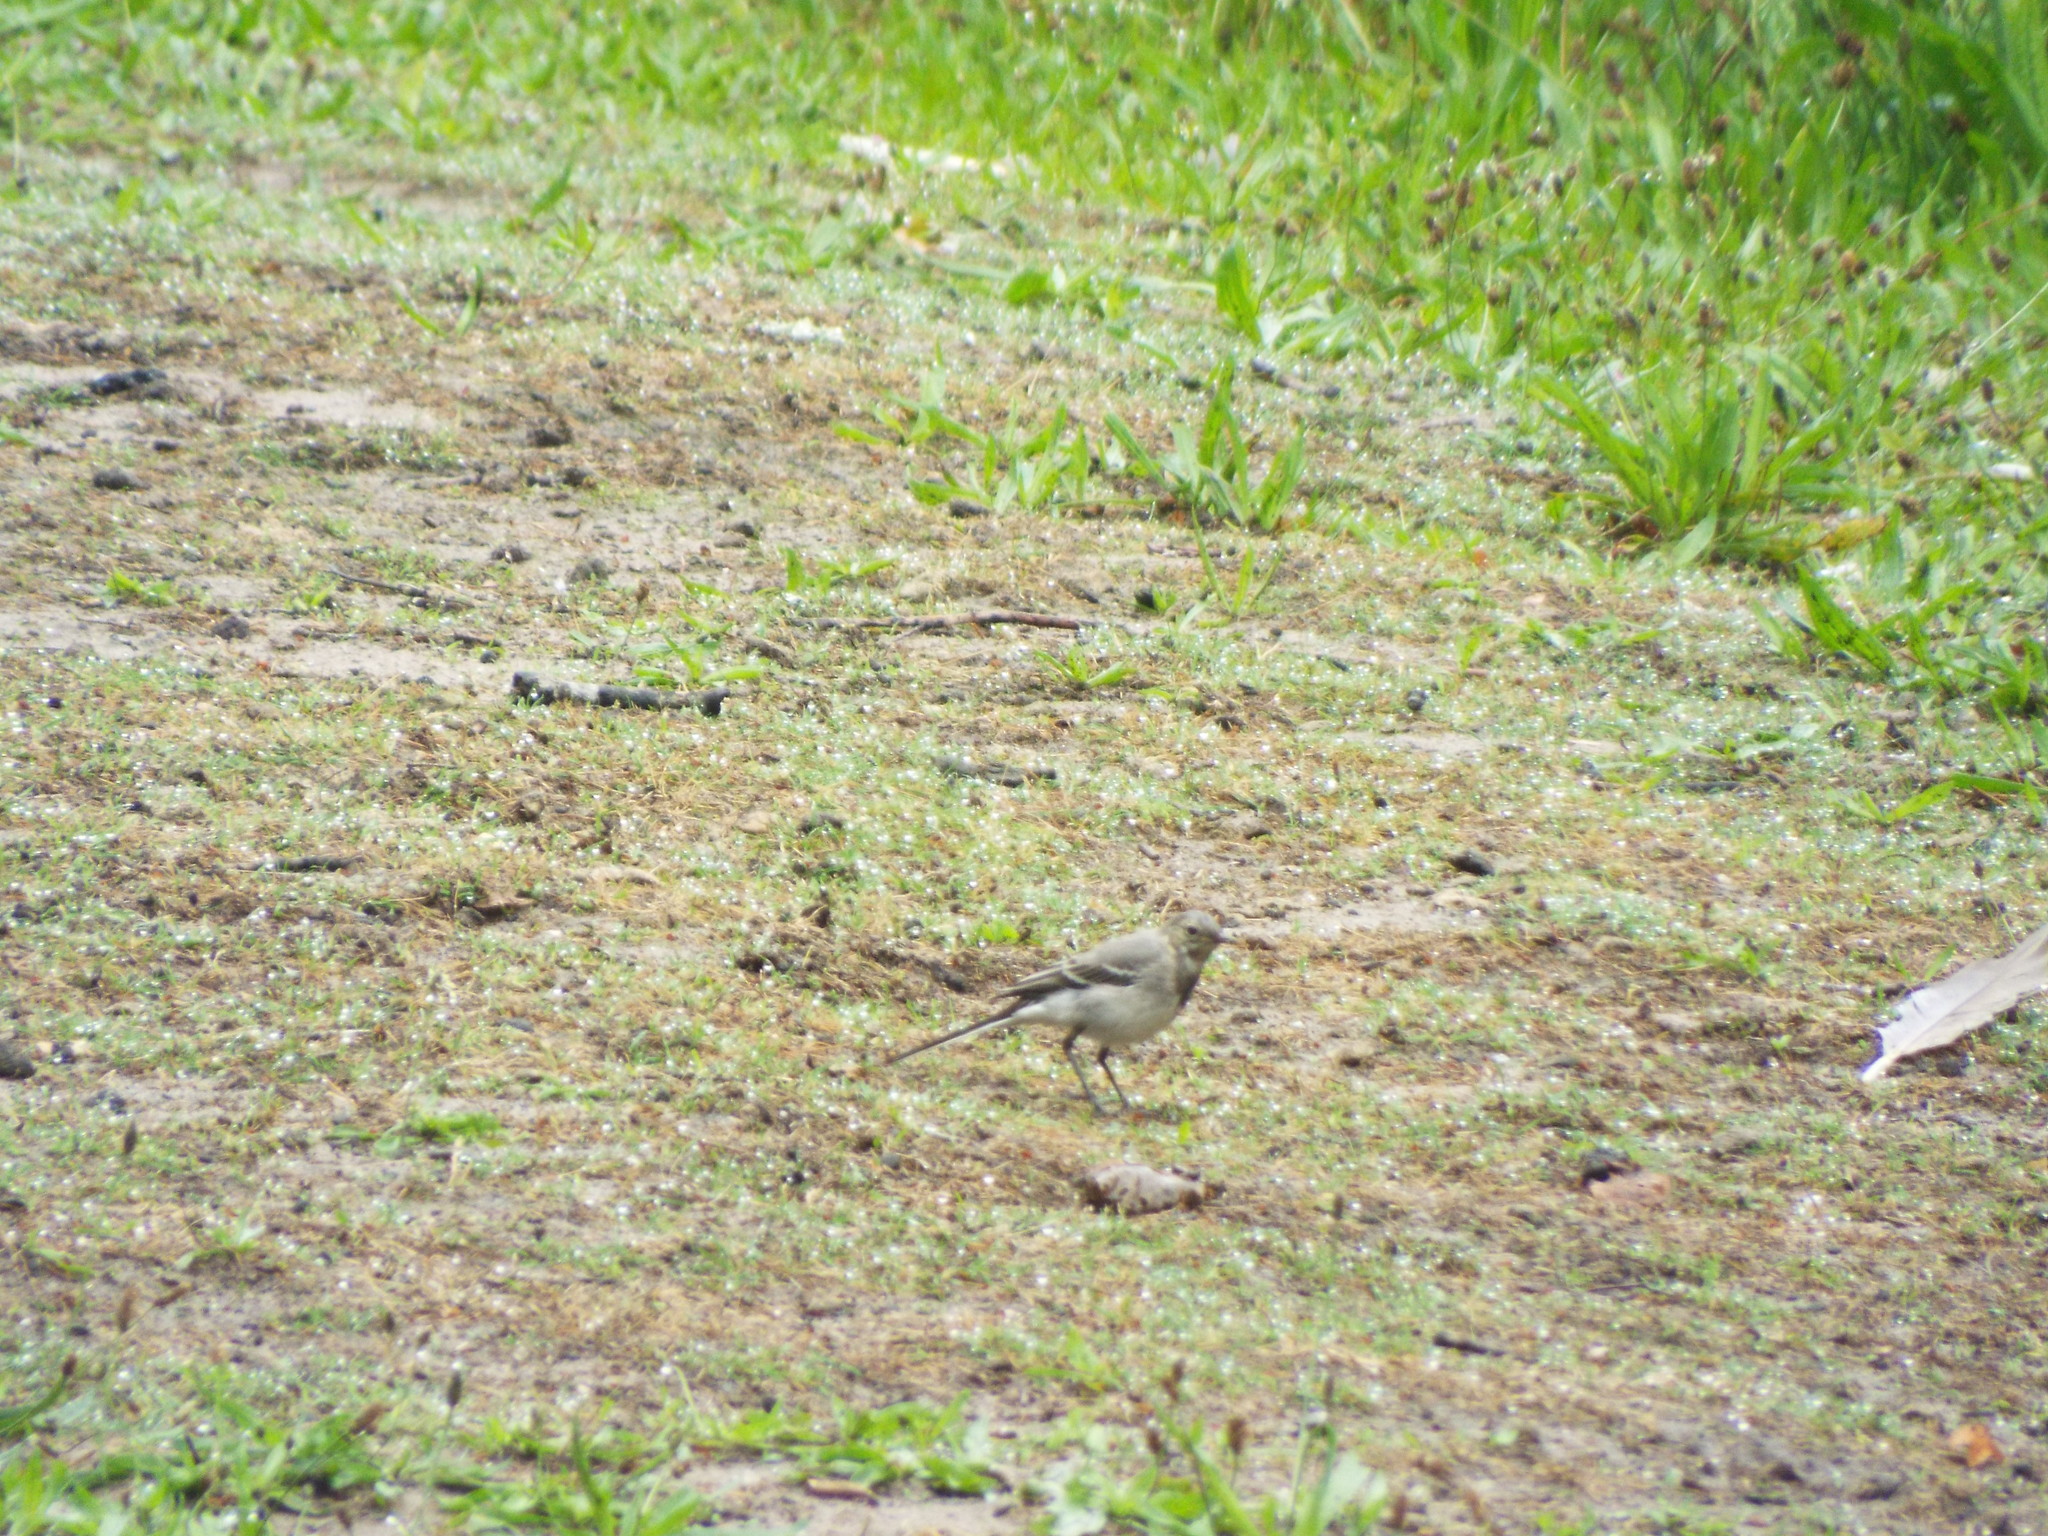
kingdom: Animalia
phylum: Chordata
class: Aves
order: Passeriformes
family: Motacillidae
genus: Motacilla
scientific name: Motacilla alba
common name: White wagtail
